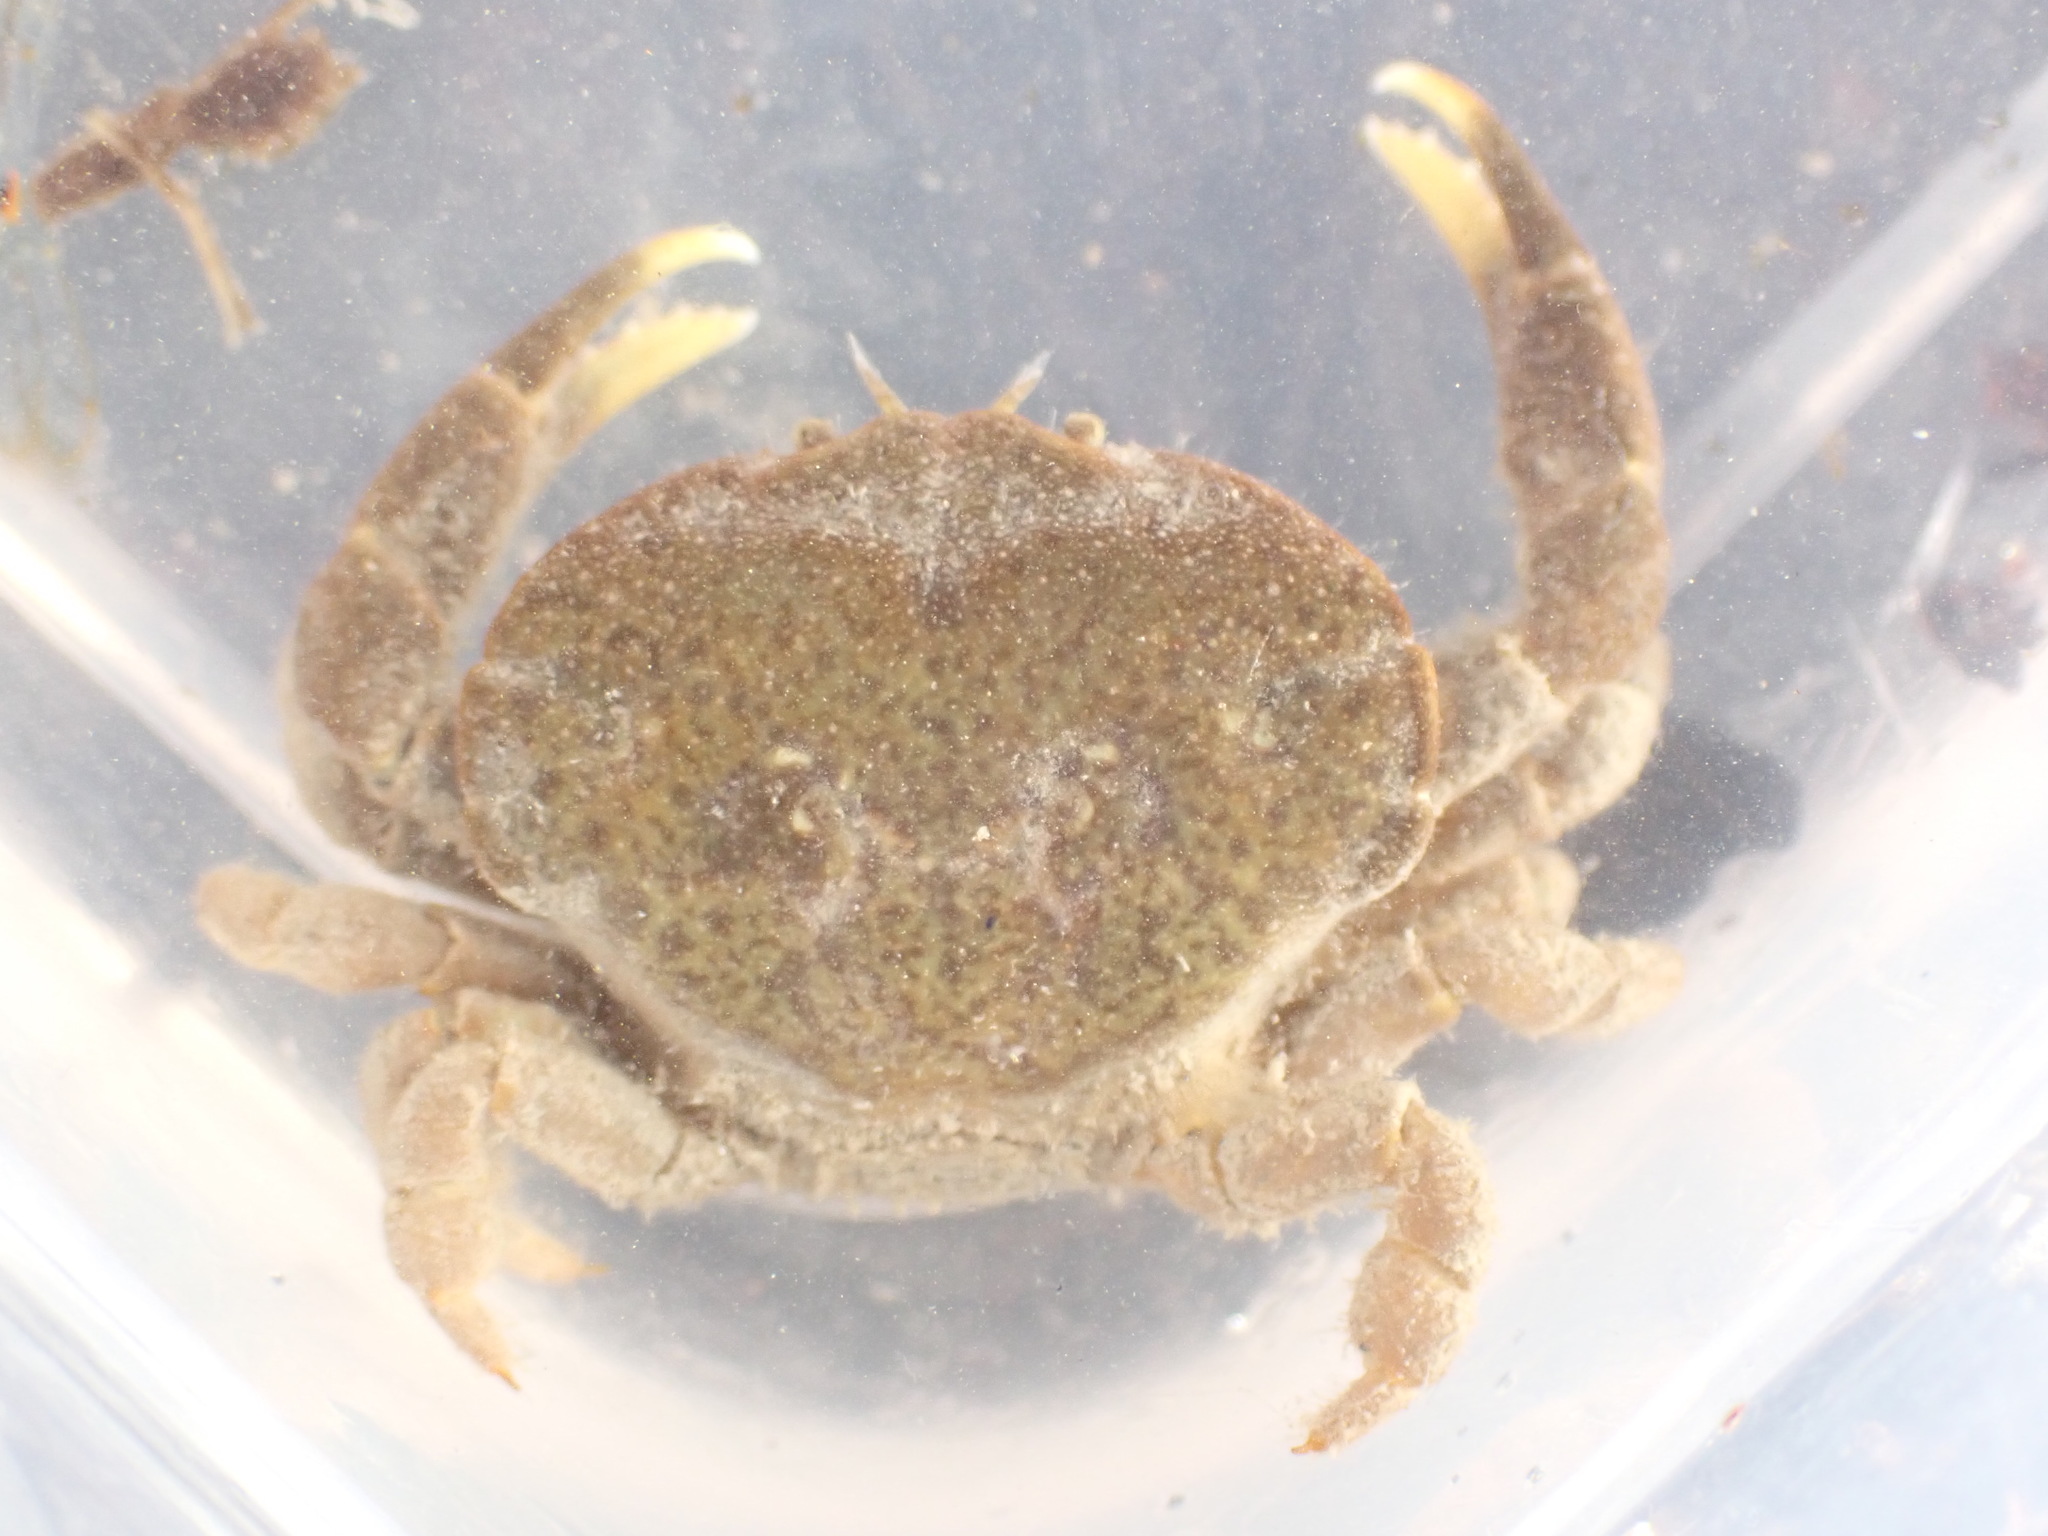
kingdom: Animalia
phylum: Arthropoda
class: Malacostraca
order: Decapoda
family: Heteroziidae
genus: Heterozius
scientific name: Heterozius rotundifrons
